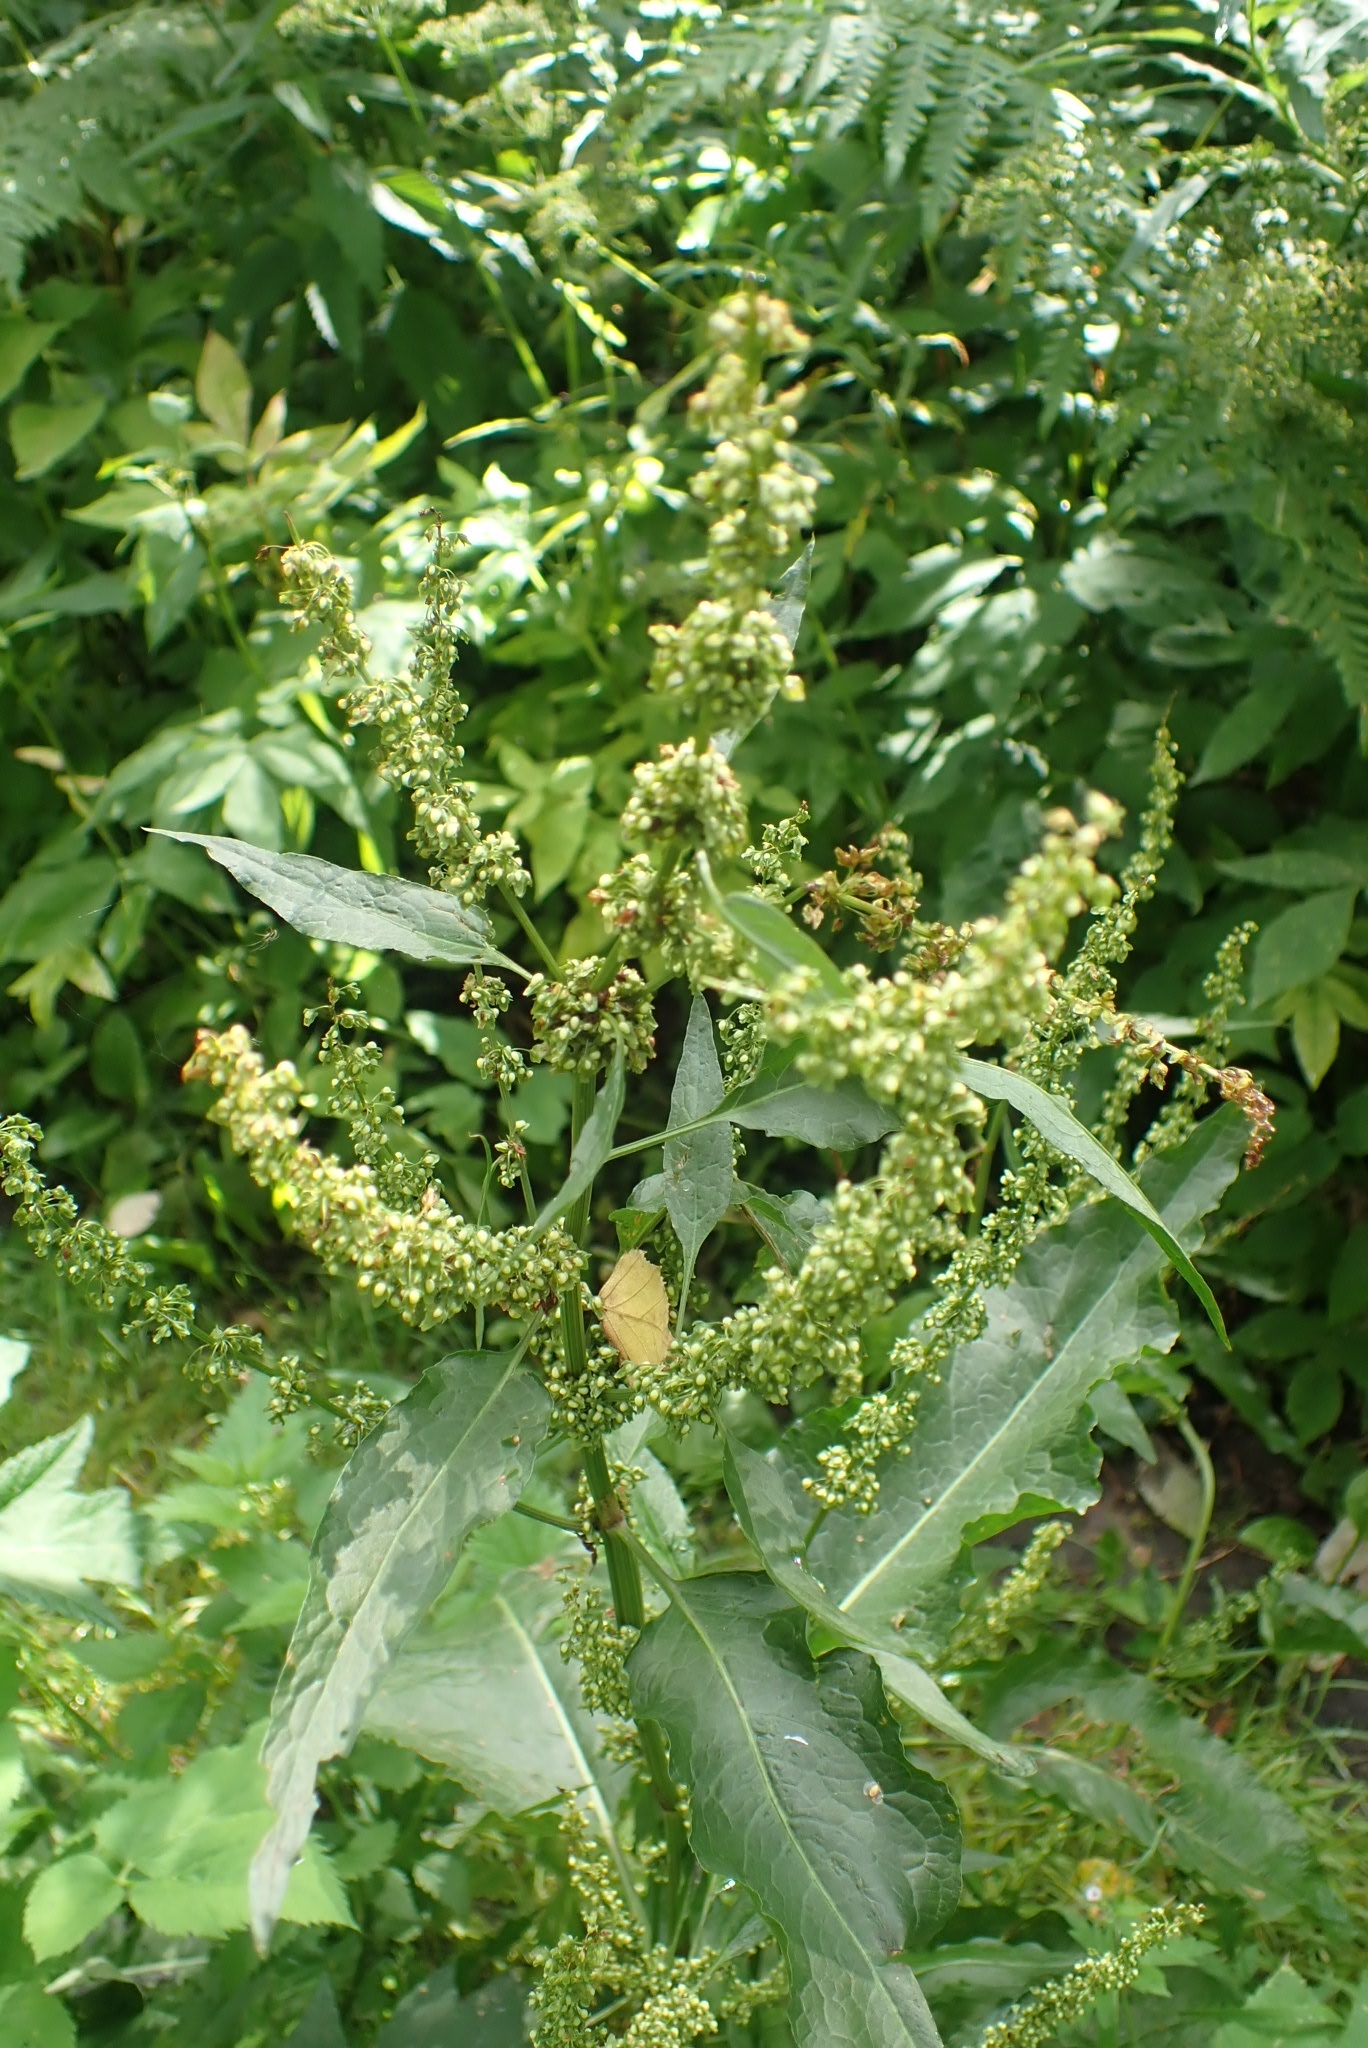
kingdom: Plantae
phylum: Tracheophyta
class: Magnoliopsida
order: Caryophyllales
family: Polygonaceae
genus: Rumex
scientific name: Rumex obtusifolius
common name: Bitter dock
